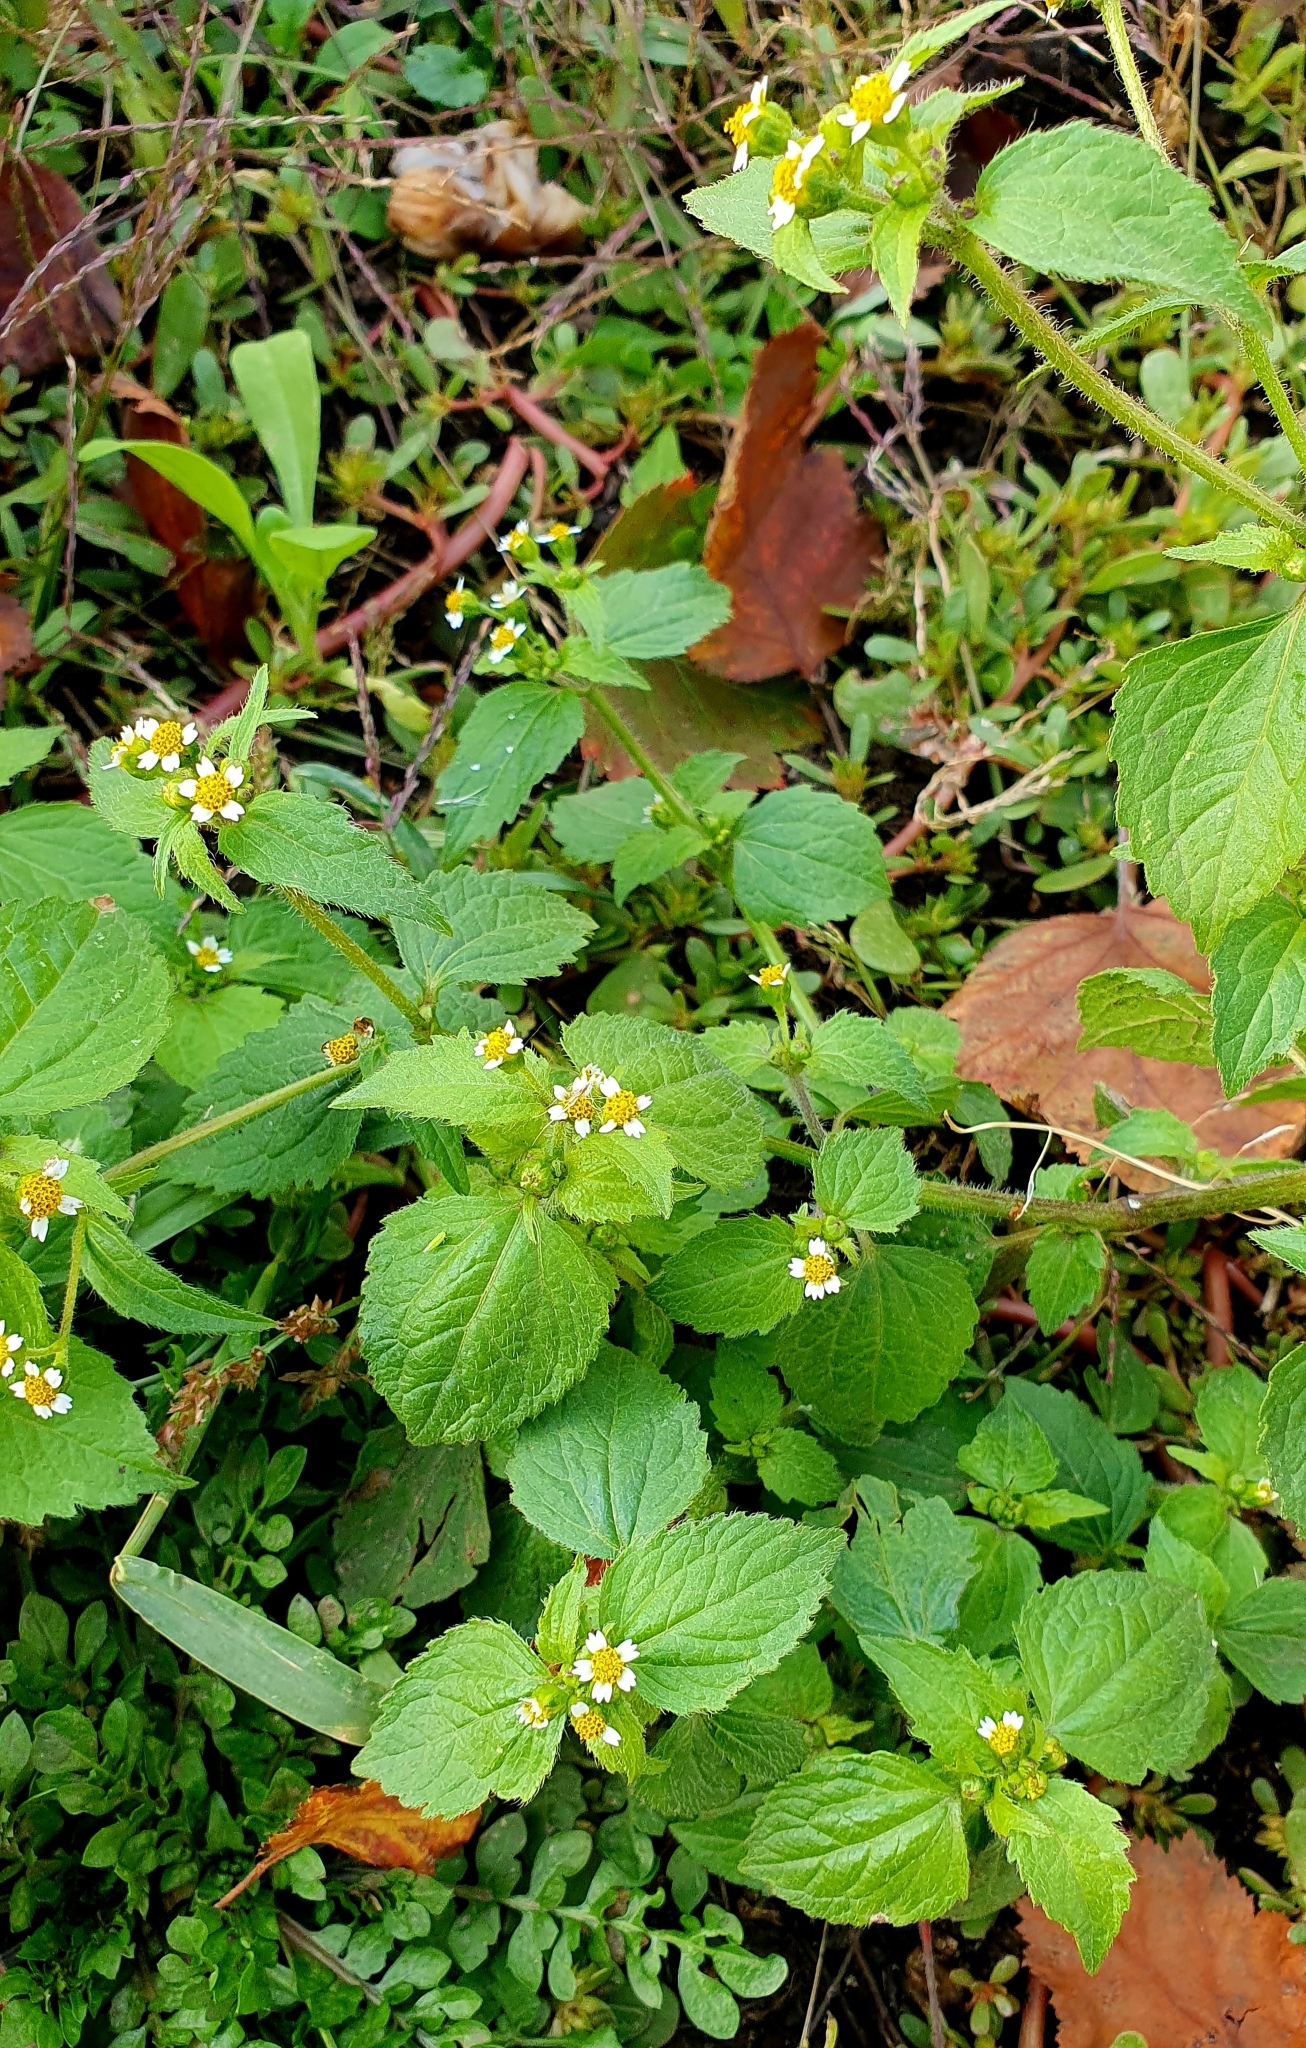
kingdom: Plantae
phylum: Tracheophyta
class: Magnoliopsida
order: Asterales
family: Asteraceae
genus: Galinsoga
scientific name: Galinsoga quadriradiata
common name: Shaggy soldier
